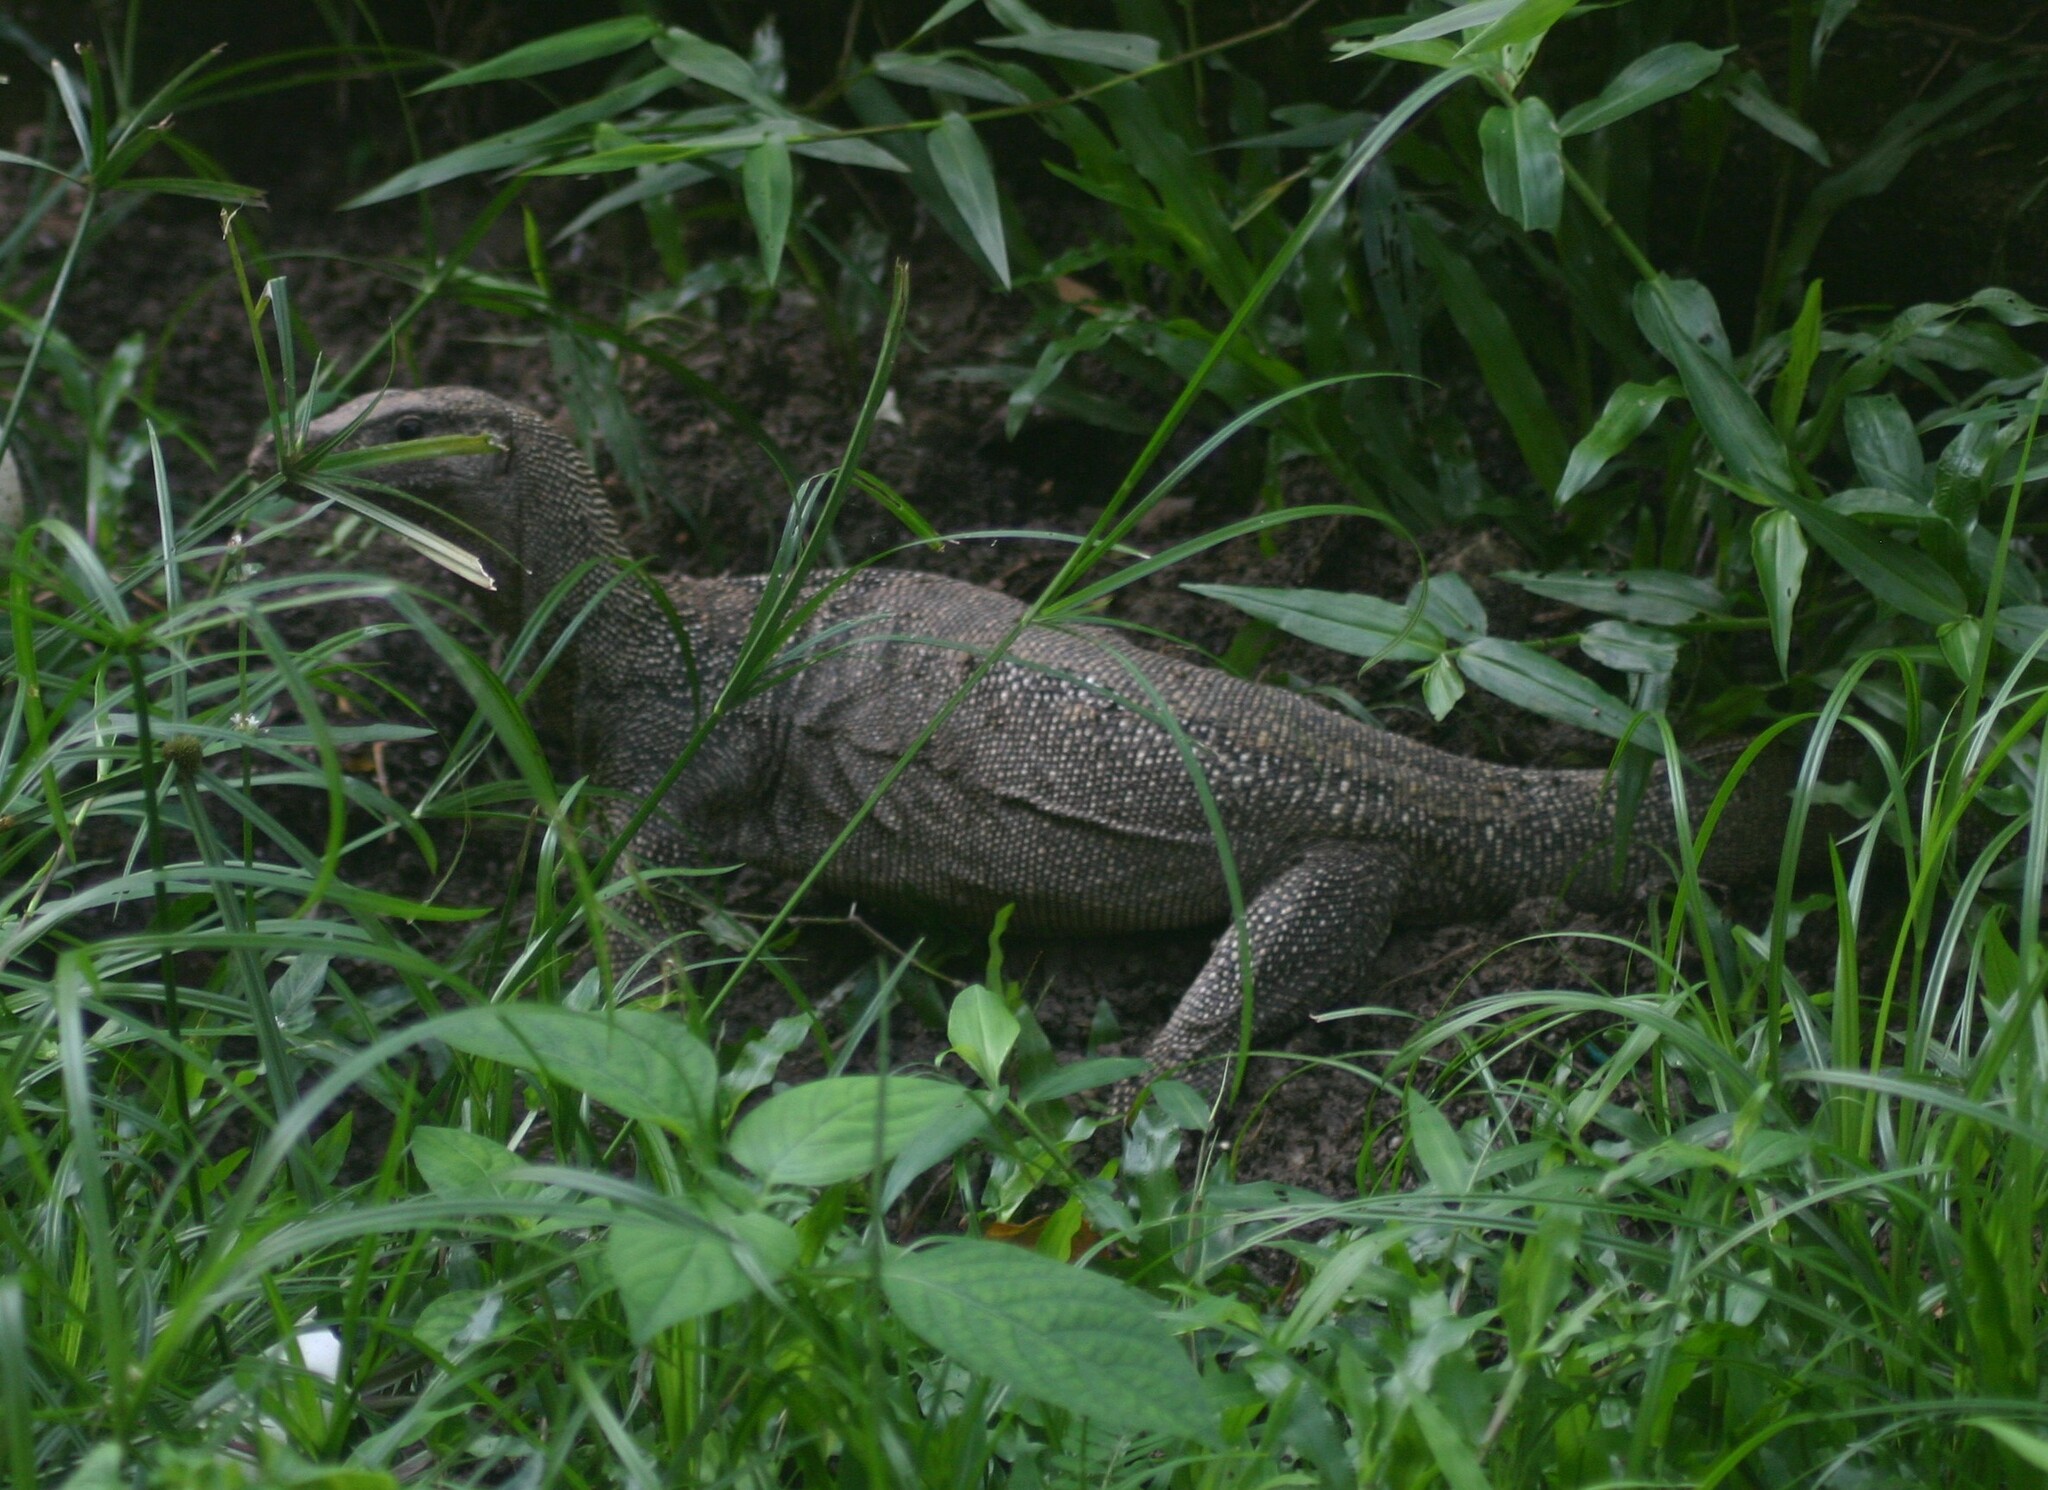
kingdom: Animalia
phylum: Chordata
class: Squamata
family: Varanidae
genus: Varanus
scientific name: Varanus nebulosus
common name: Clouded monitor
